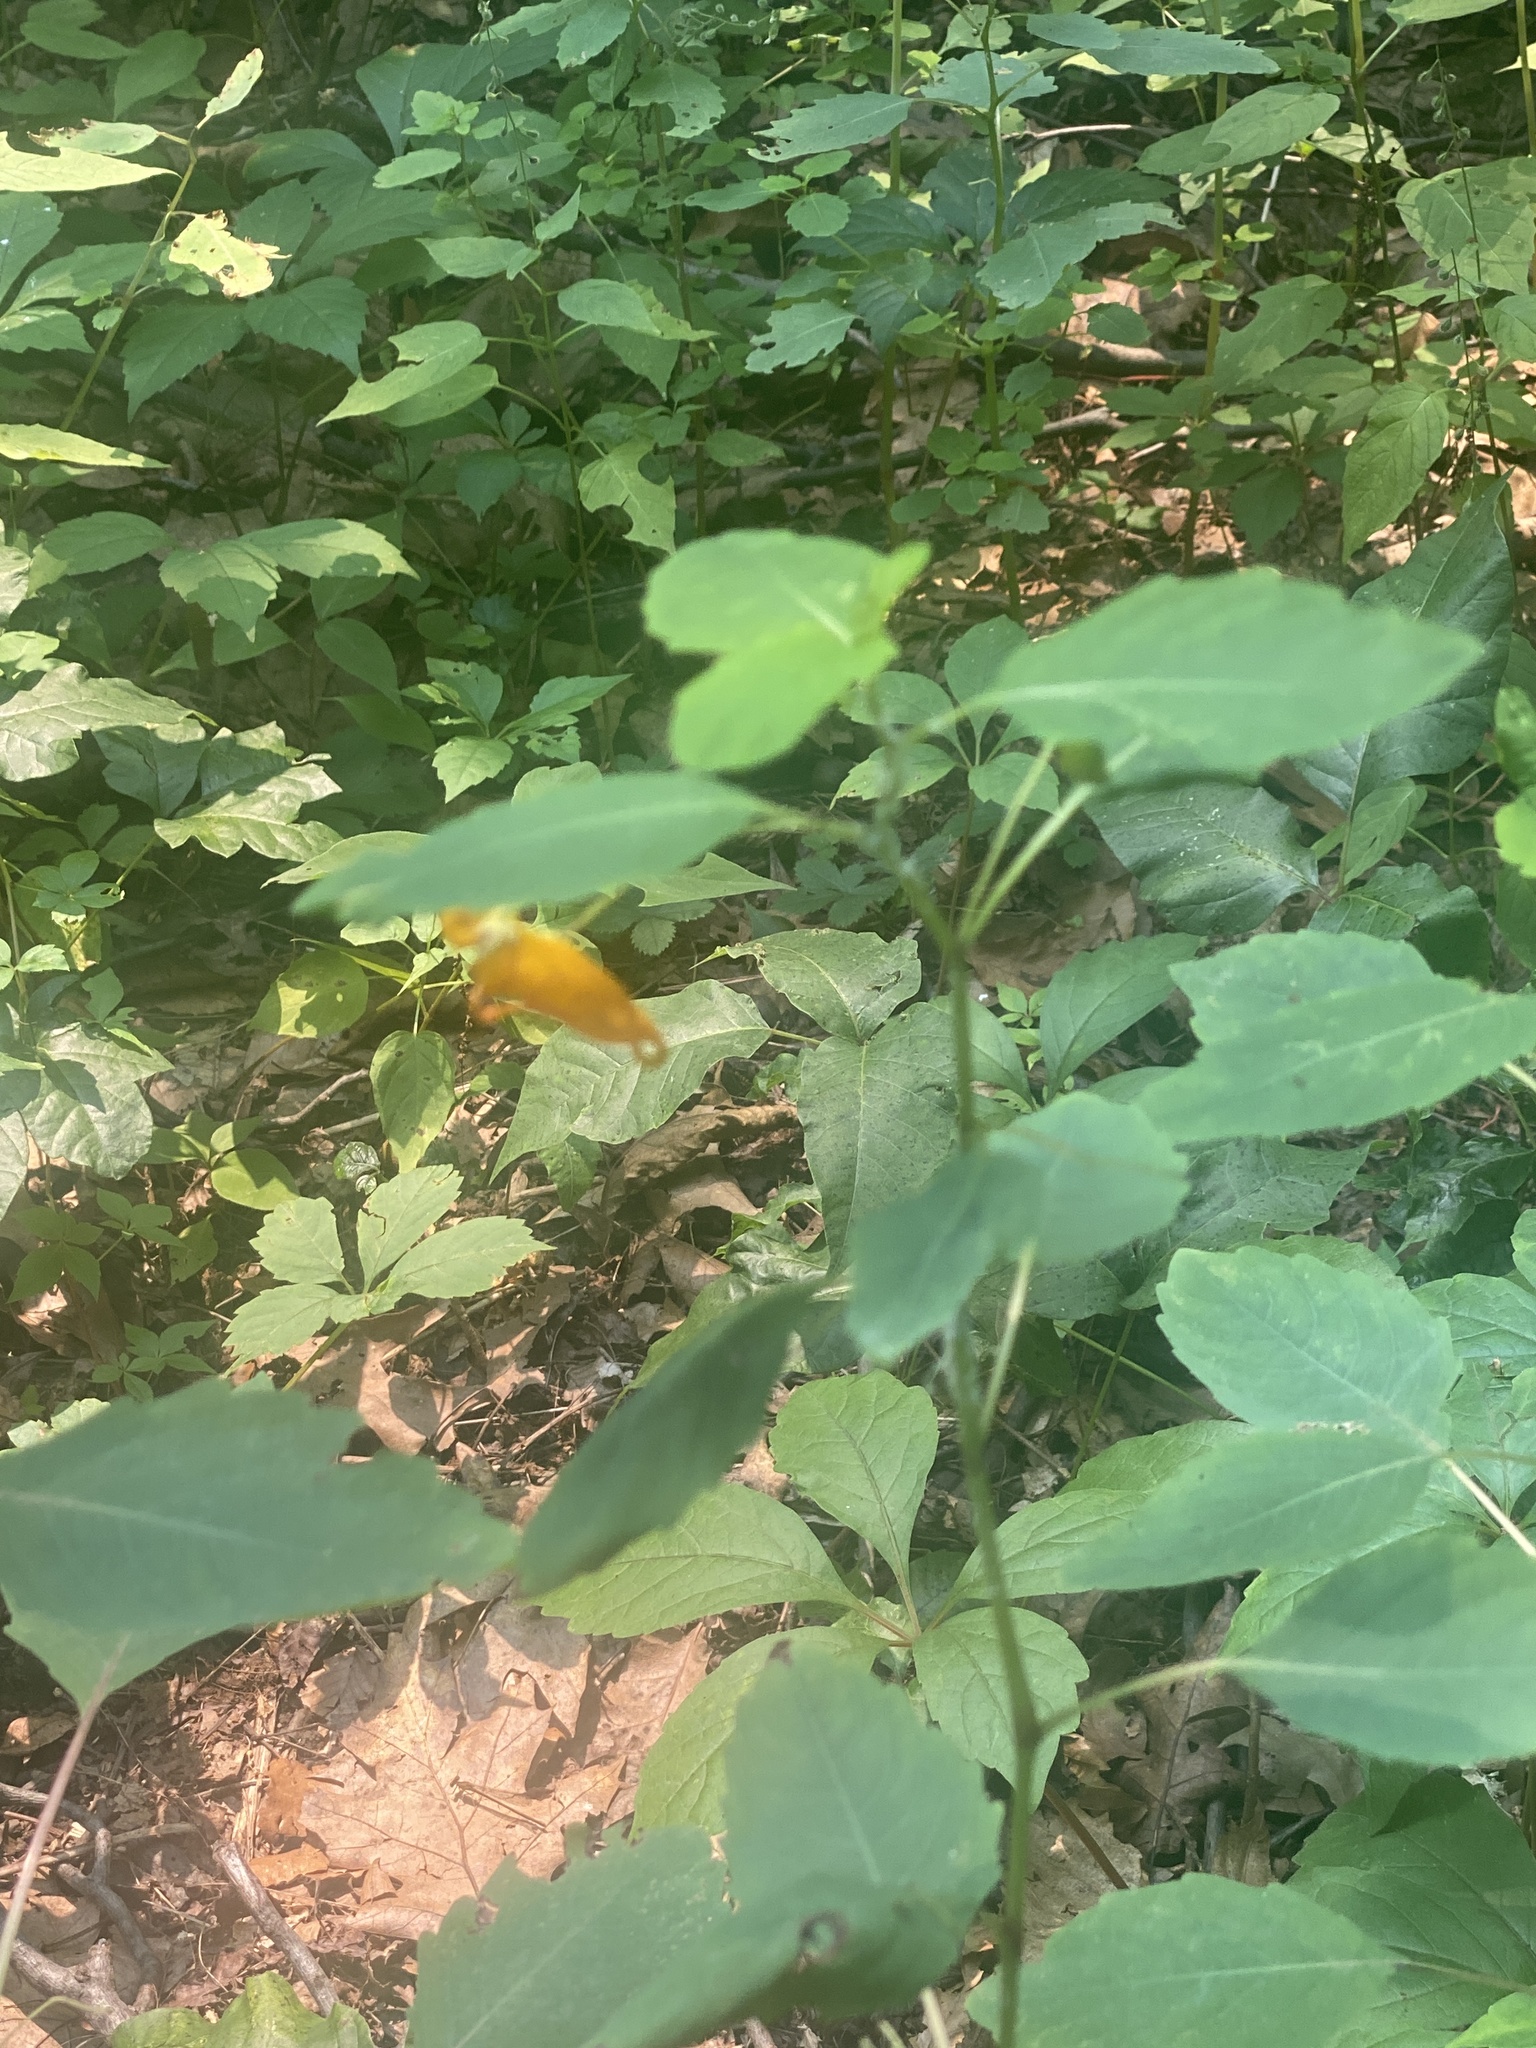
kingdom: Plantae
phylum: Tracheophyta
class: Magnoliopsida
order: Ericales
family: Balsaminaceae
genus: Impatiens
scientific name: Impatiens capensis
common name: Orange balsam
